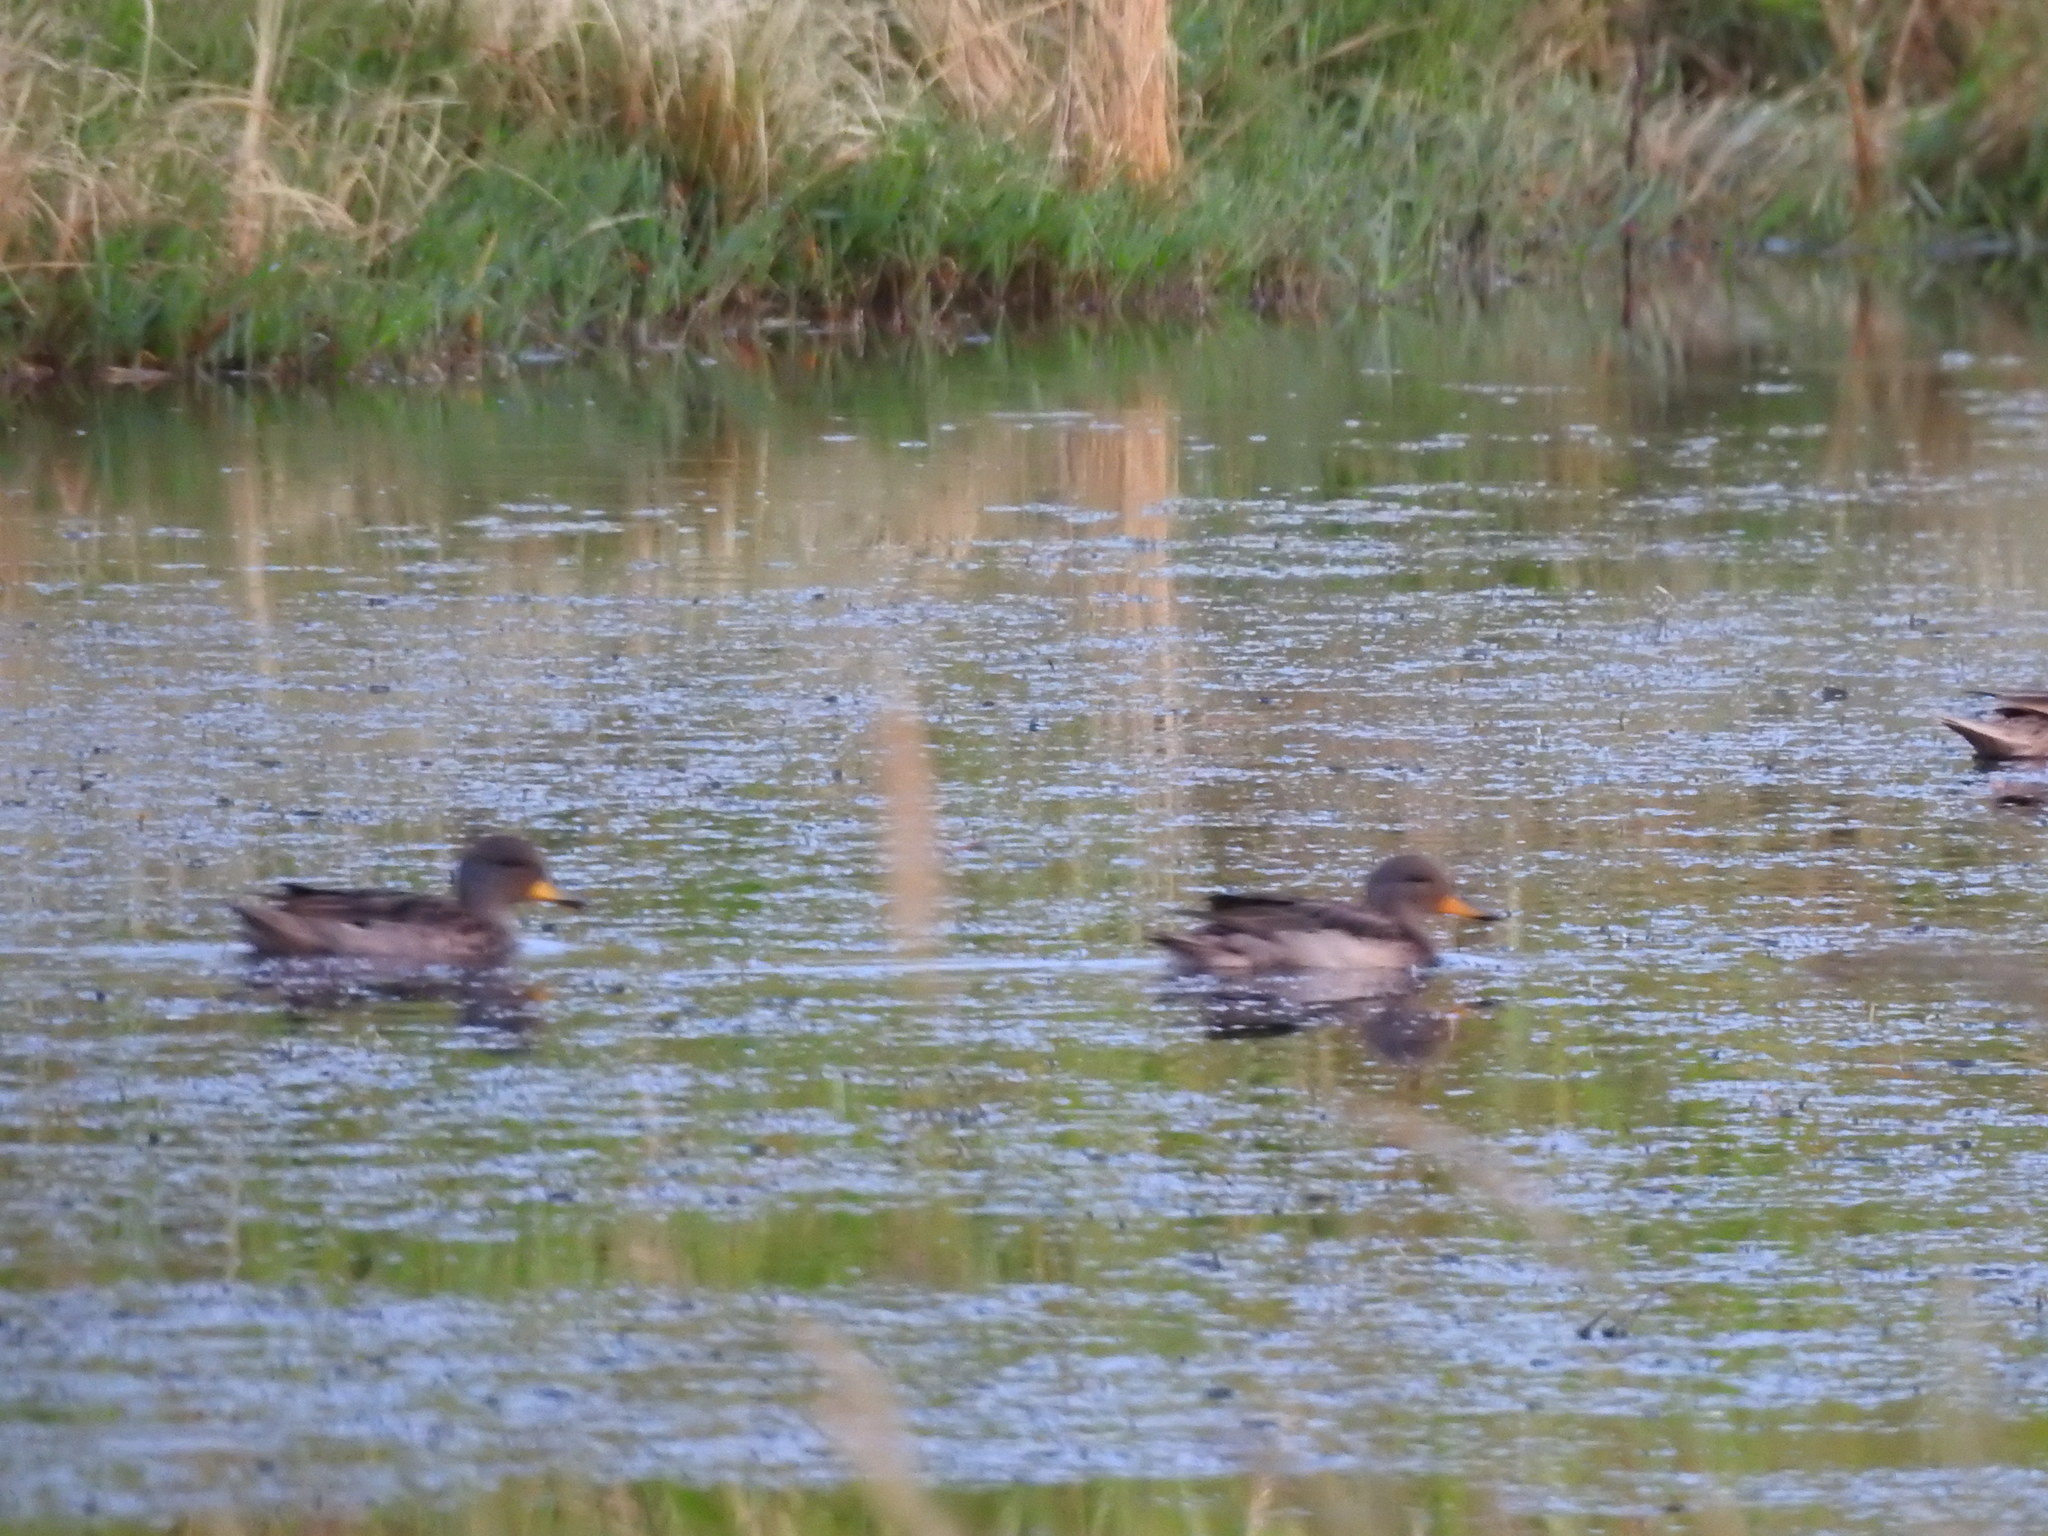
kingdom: Animalia
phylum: Chordata
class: Aves
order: Anseriformes
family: Anatidae
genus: Anas
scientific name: Anas flavirostris
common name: Yellow-billed teal
